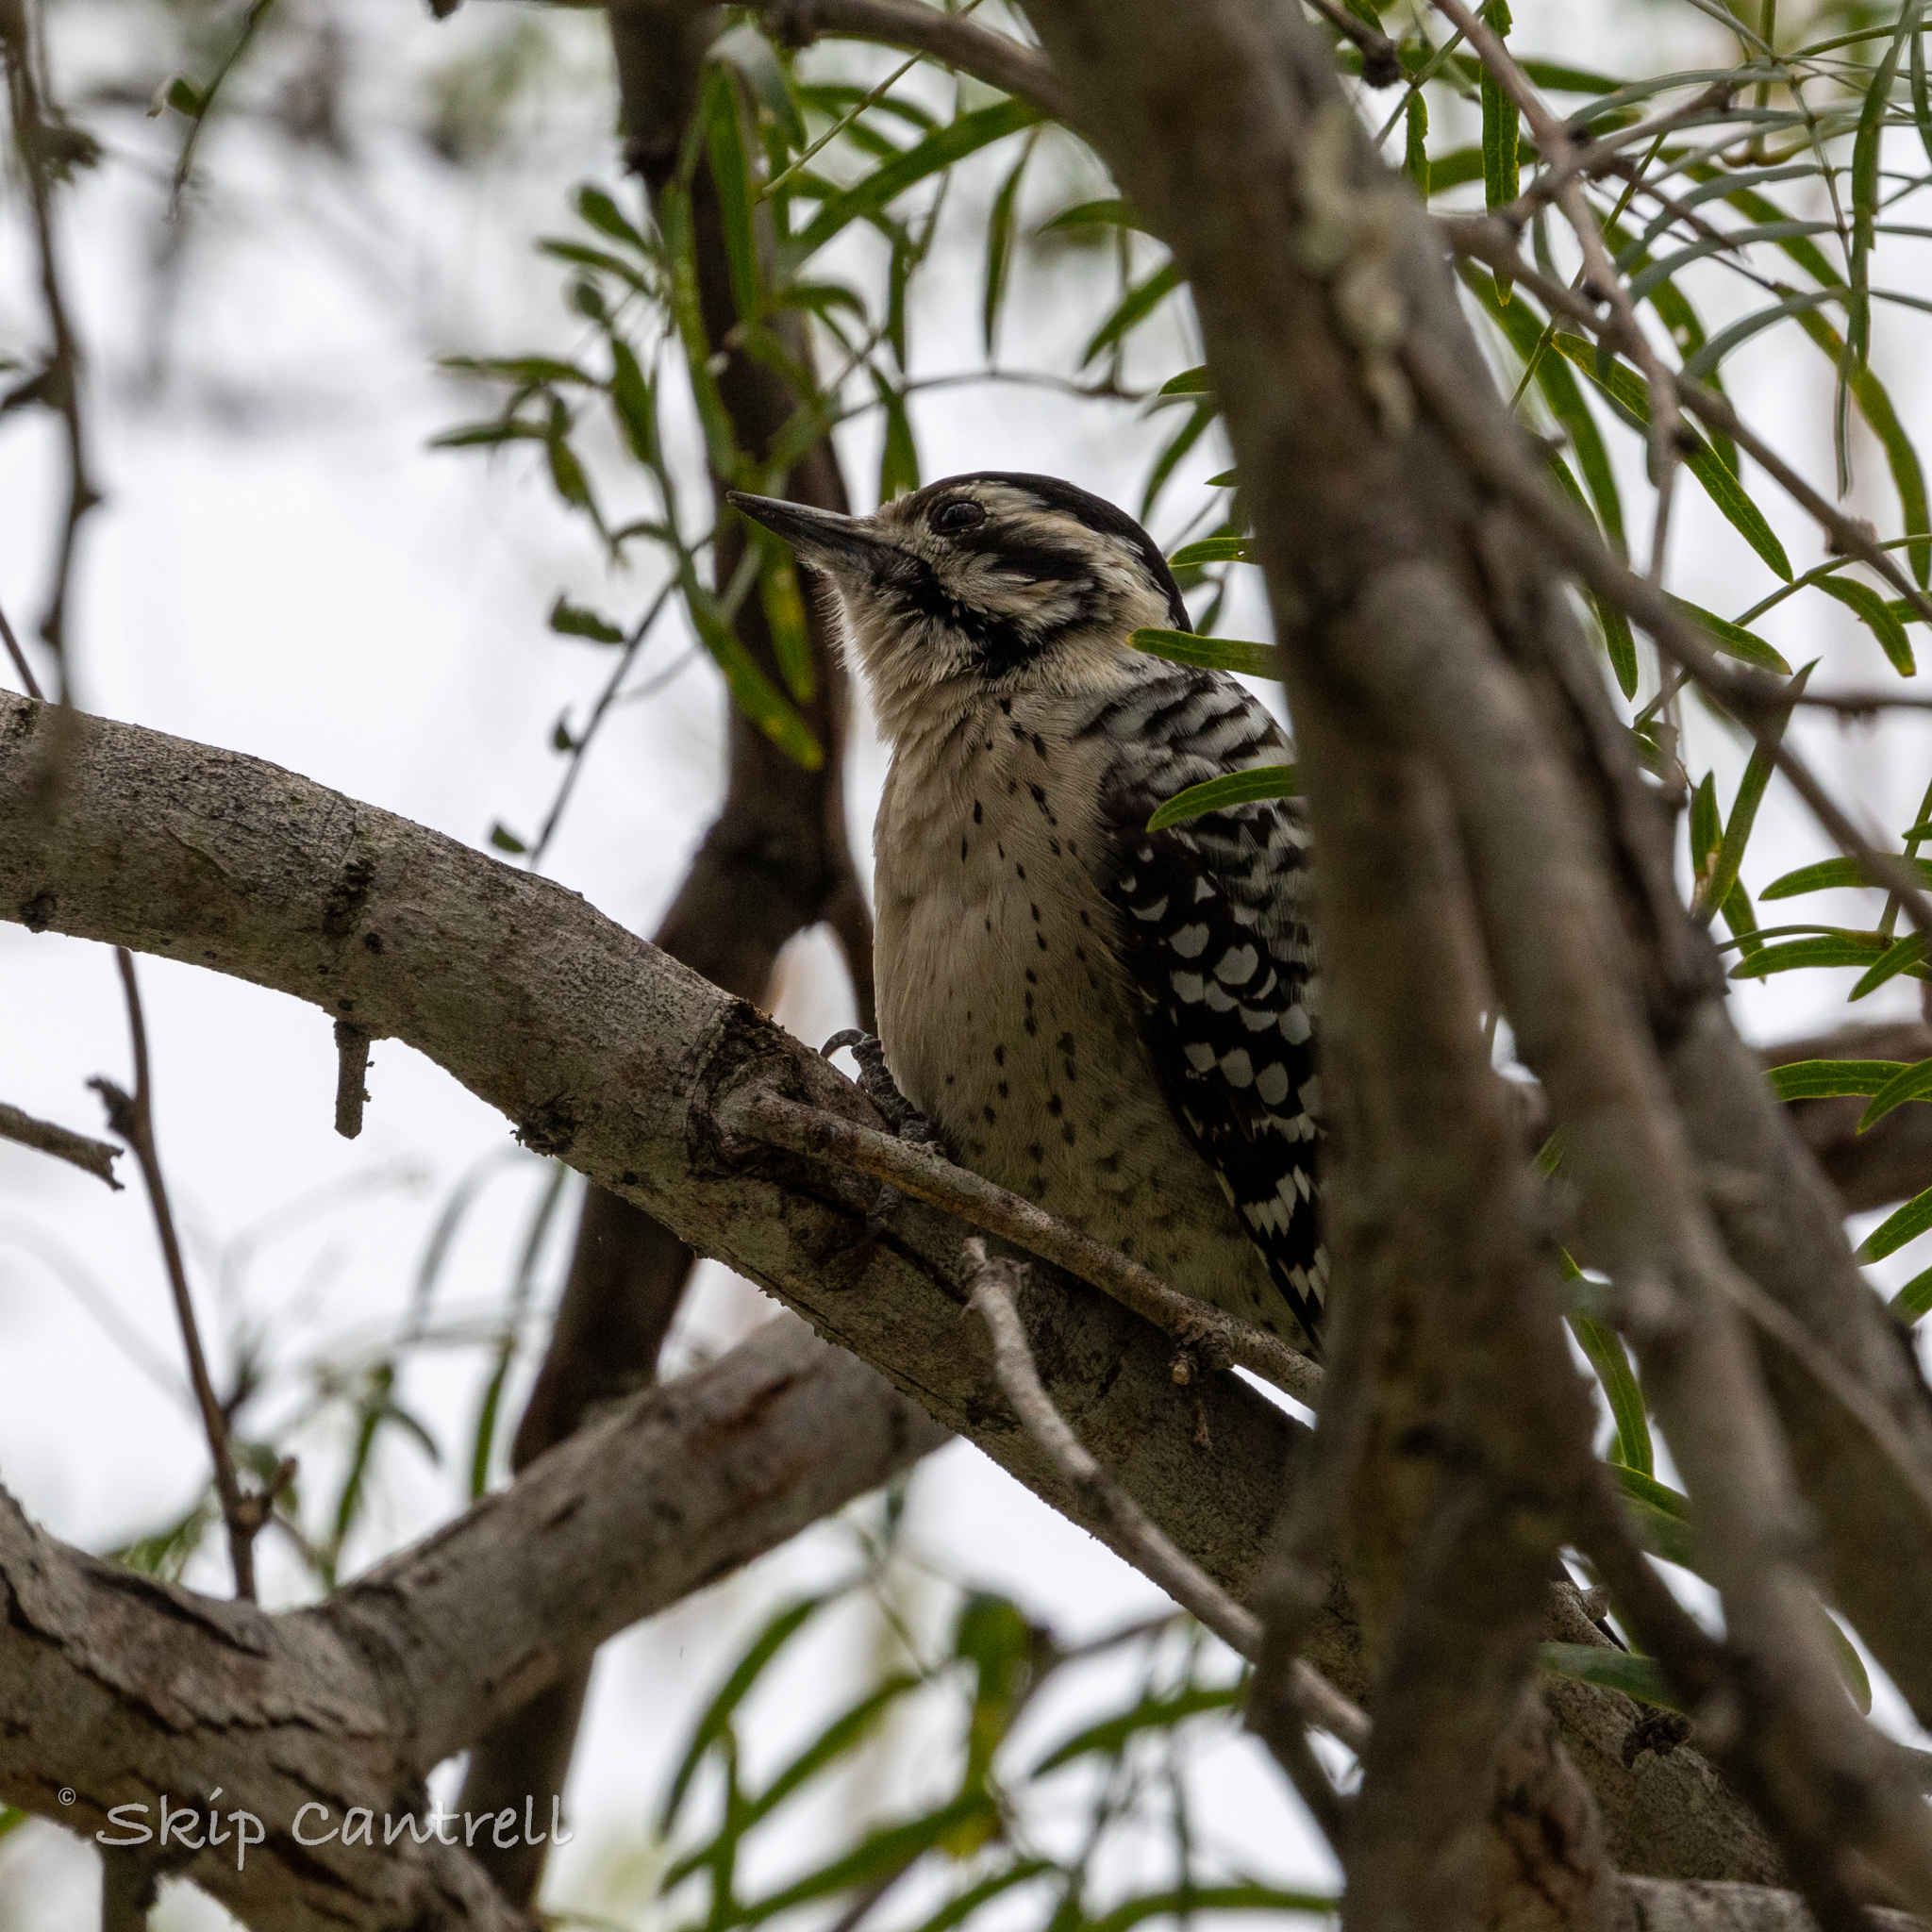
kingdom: Animalia
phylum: Chordata
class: Aves
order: Piciformes
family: Picidae
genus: Dryobates
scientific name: Dryobates scalaris
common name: Ladder-backed woodpecker
